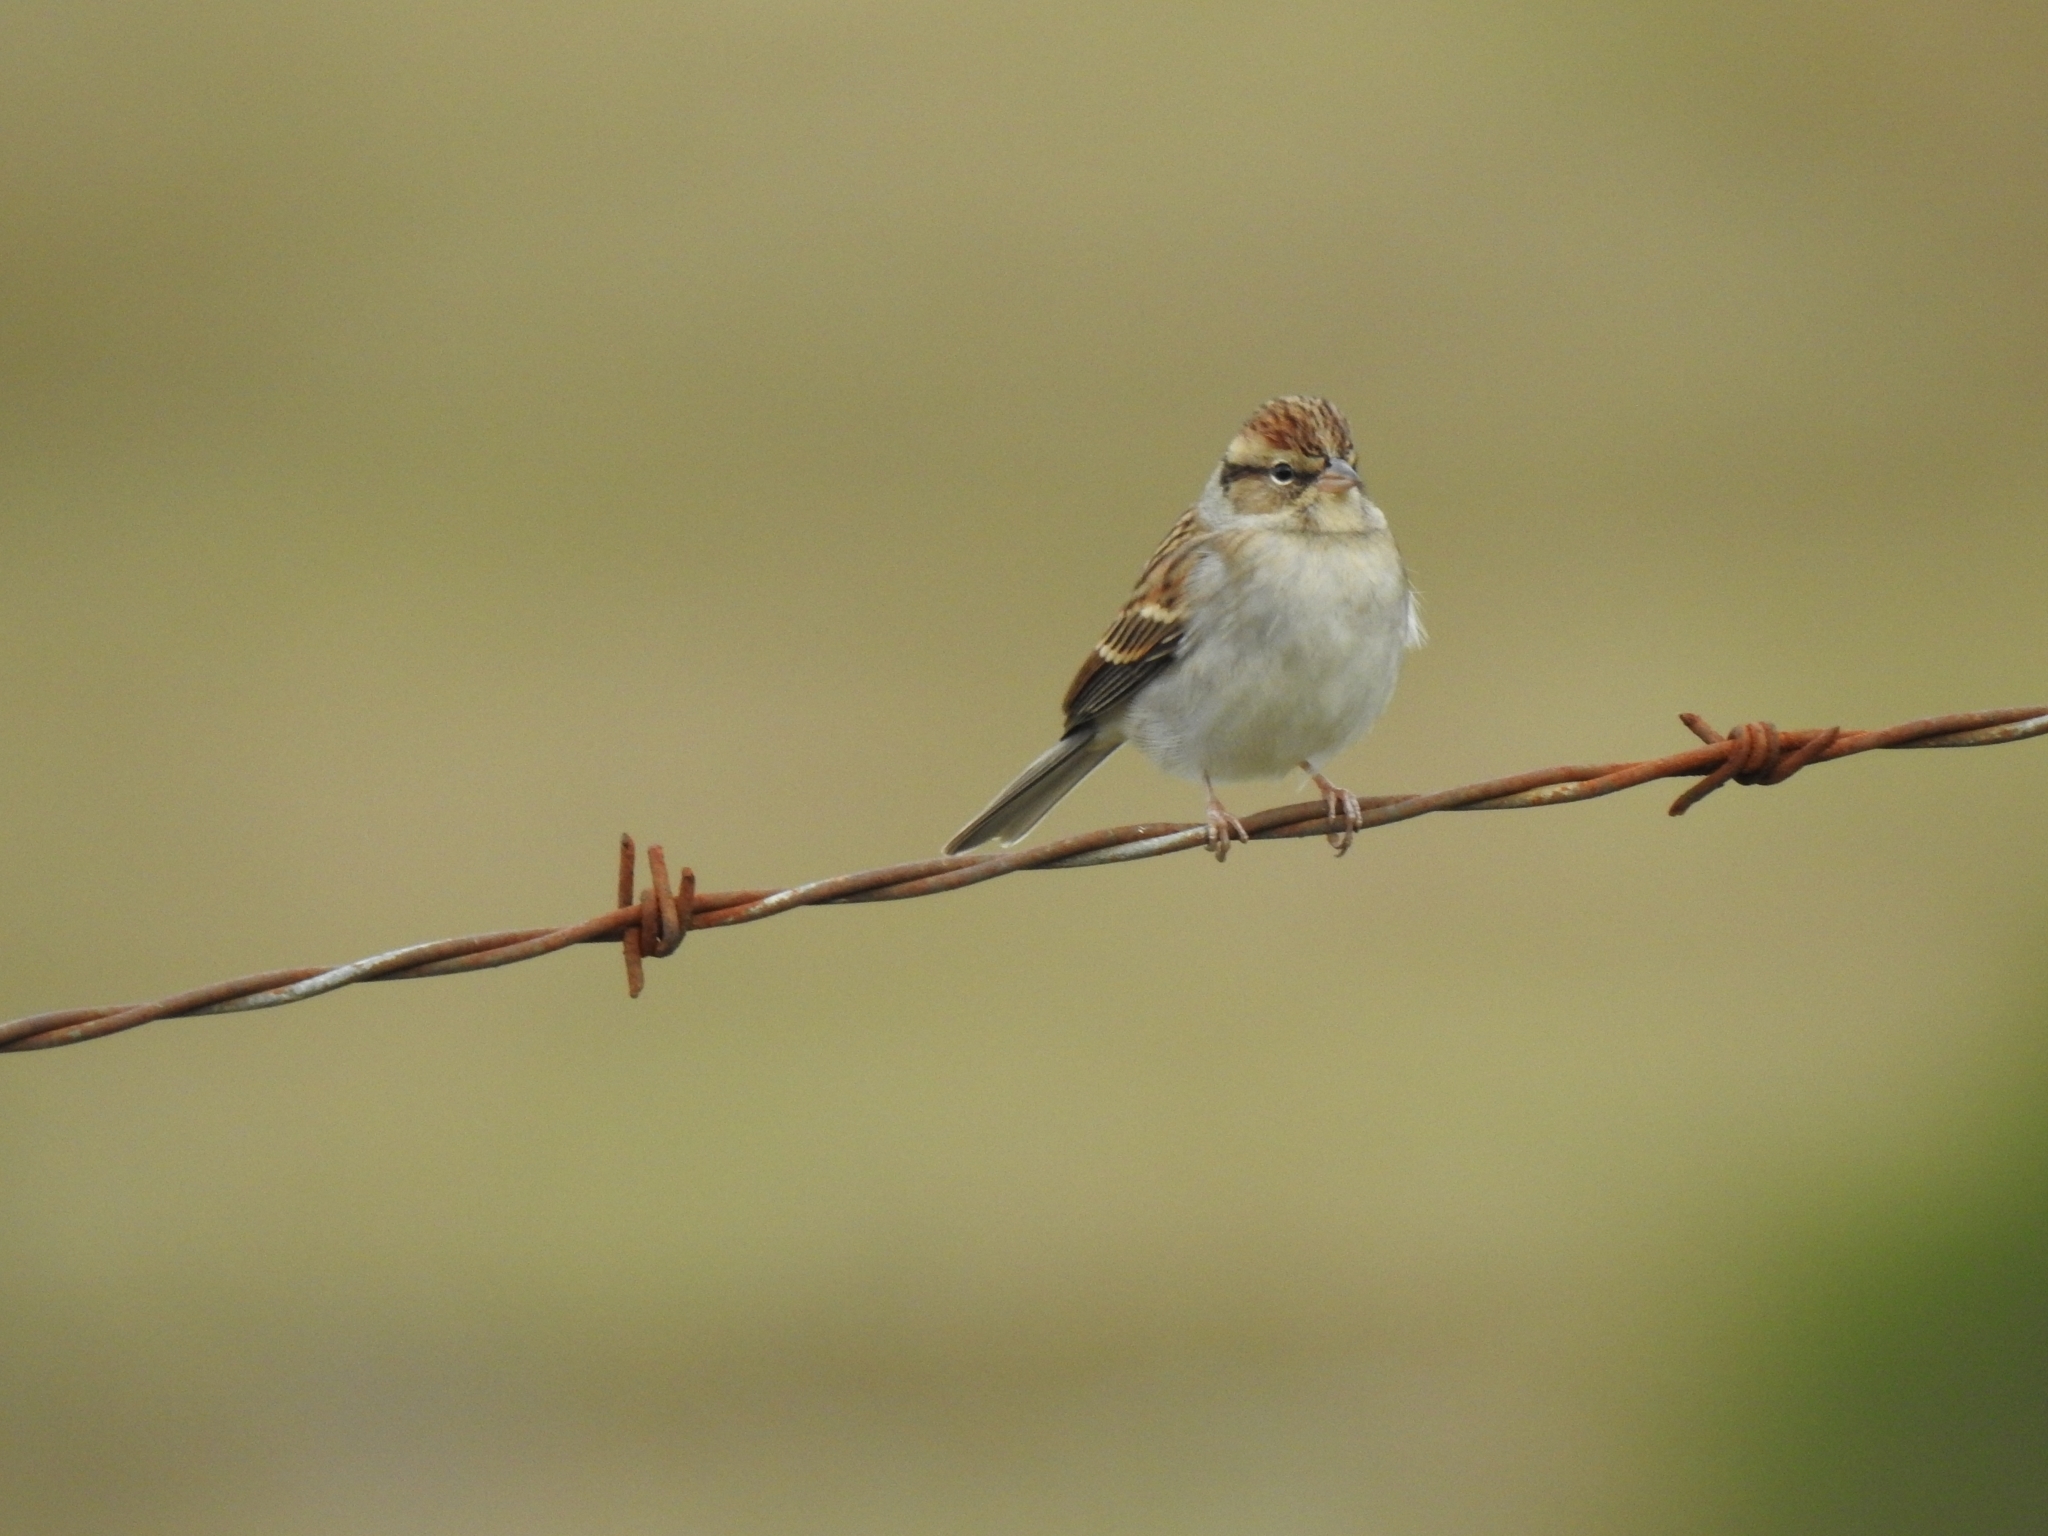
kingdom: Animalia
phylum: Chordata
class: Aves
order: Passeriformes
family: Passerellidae
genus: Spizella
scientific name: Spizella passerina
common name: Chipping sparrow
